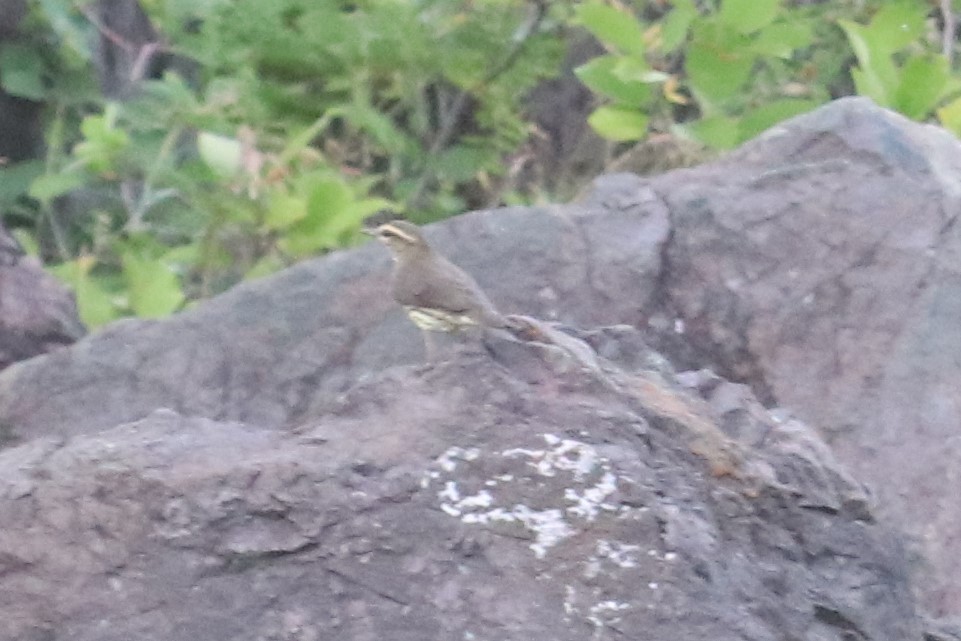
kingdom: Animalia
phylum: Chordata
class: Aves
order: Passeriformes
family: Parulidae
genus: Parkesia
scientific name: Parkesia noveboracensis
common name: Northern waterthrush
